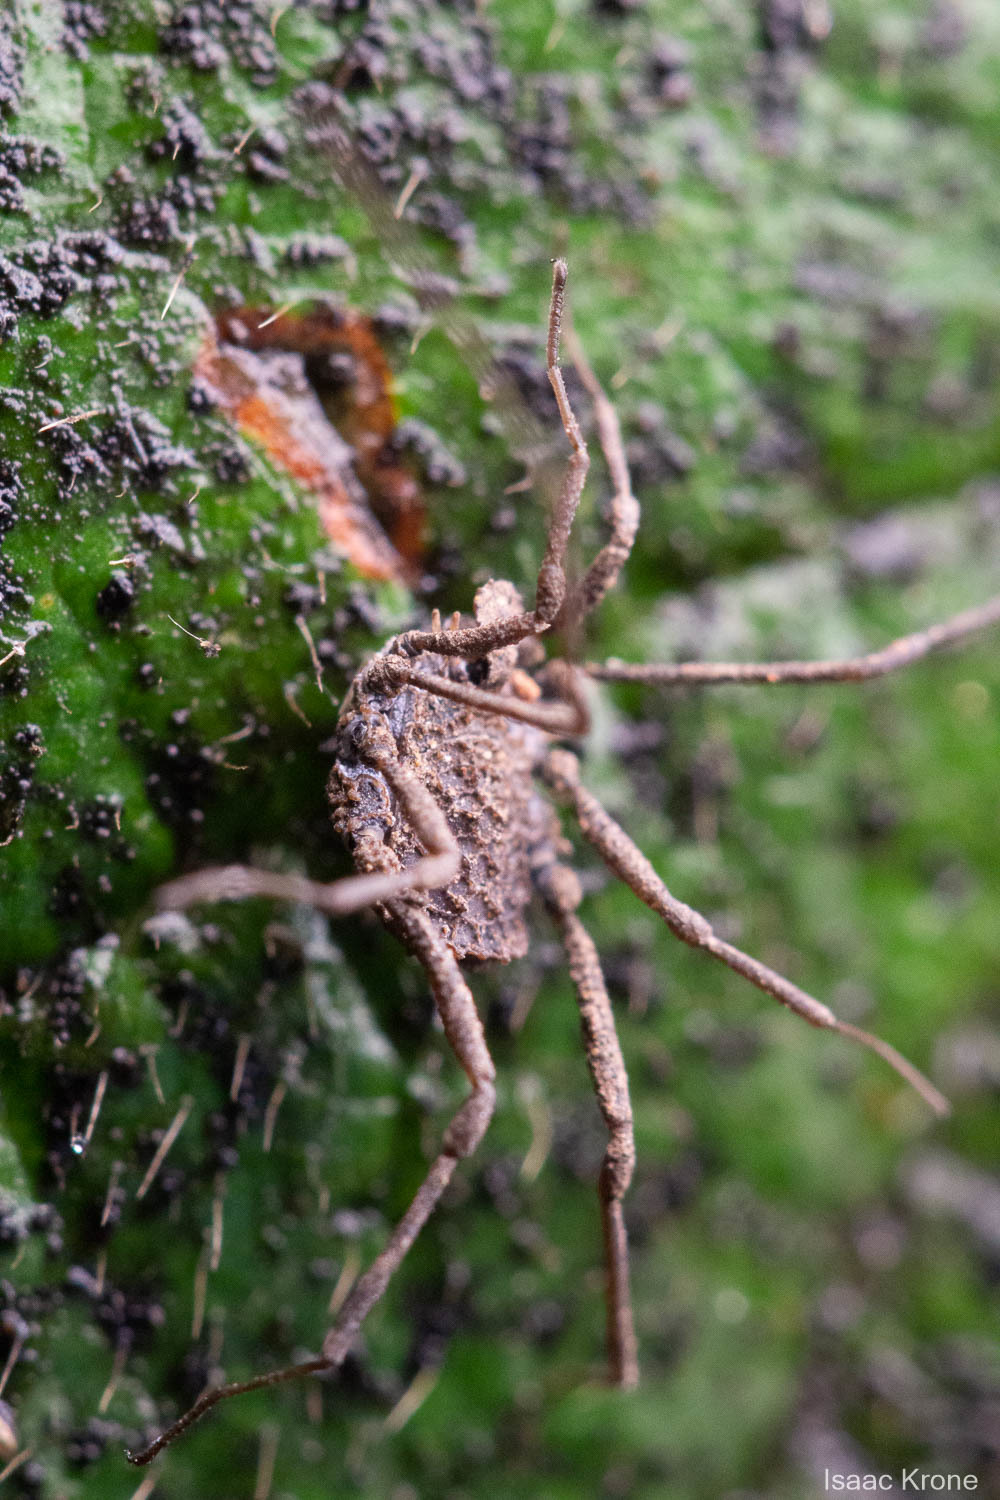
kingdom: Animalia
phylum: Arthropoda
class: Arachnida
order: Opiliones
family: Nemastomatidae
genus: Ortholasma
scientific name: Ortholasma rugosum
